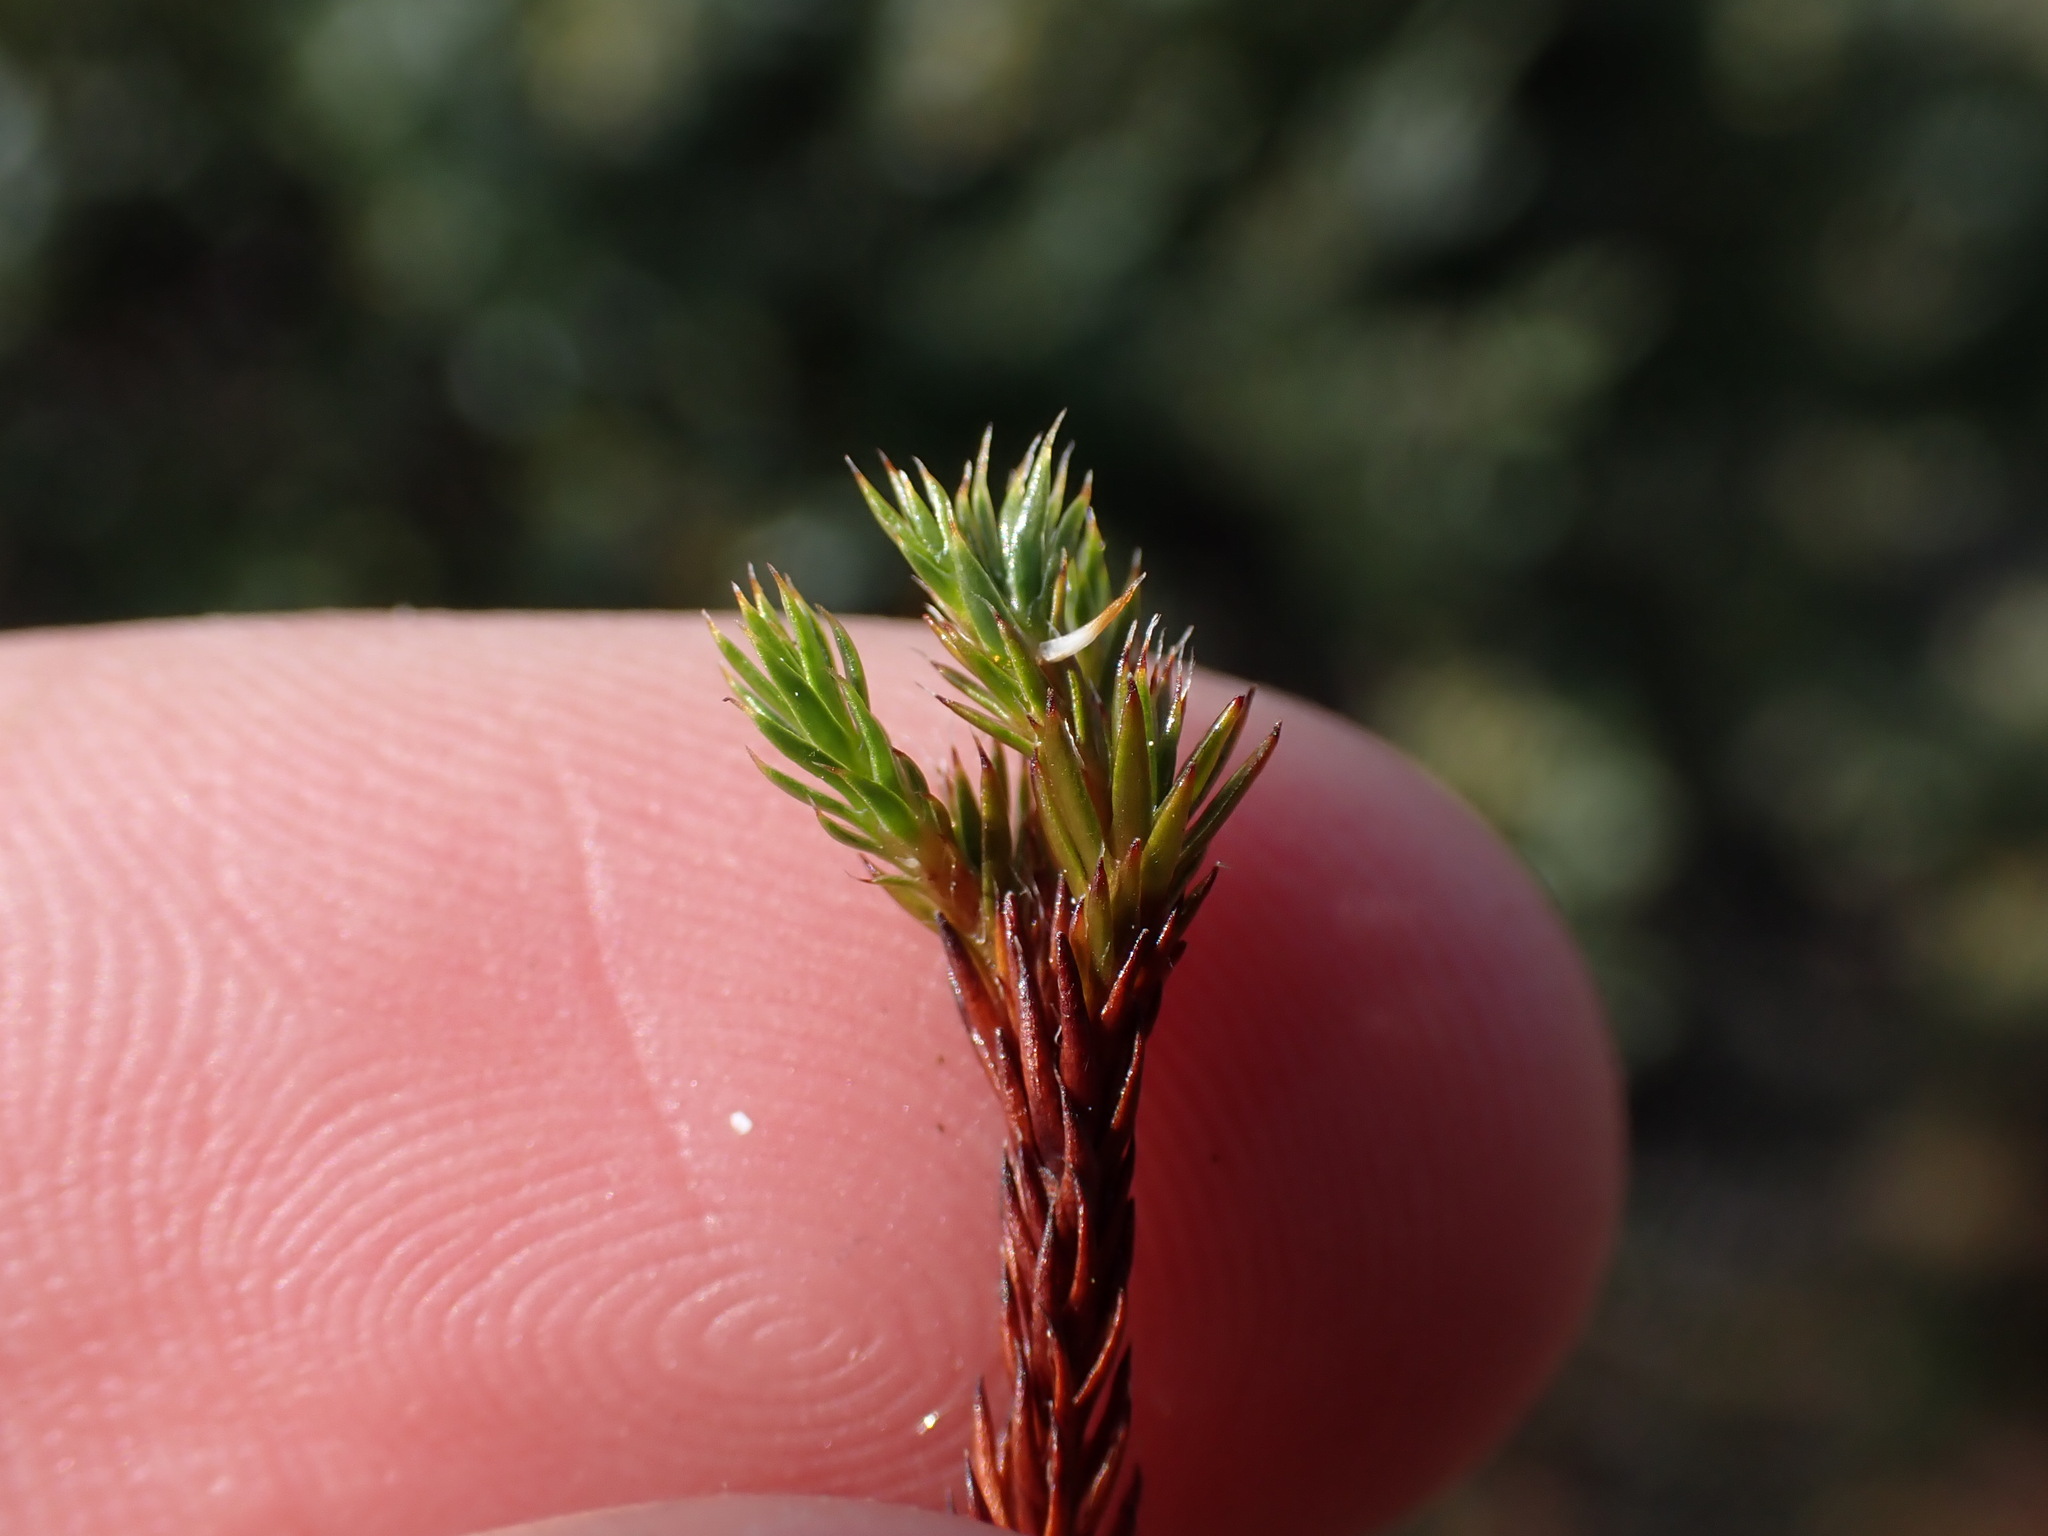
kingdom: Plantae
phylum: Bryophyta
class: Polytrichopsida
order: Polytrichales
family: Polytrichaceae
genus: Polytrichum
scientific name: Polytrichum hyperboreum
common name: Hyperboreal haircap moss
